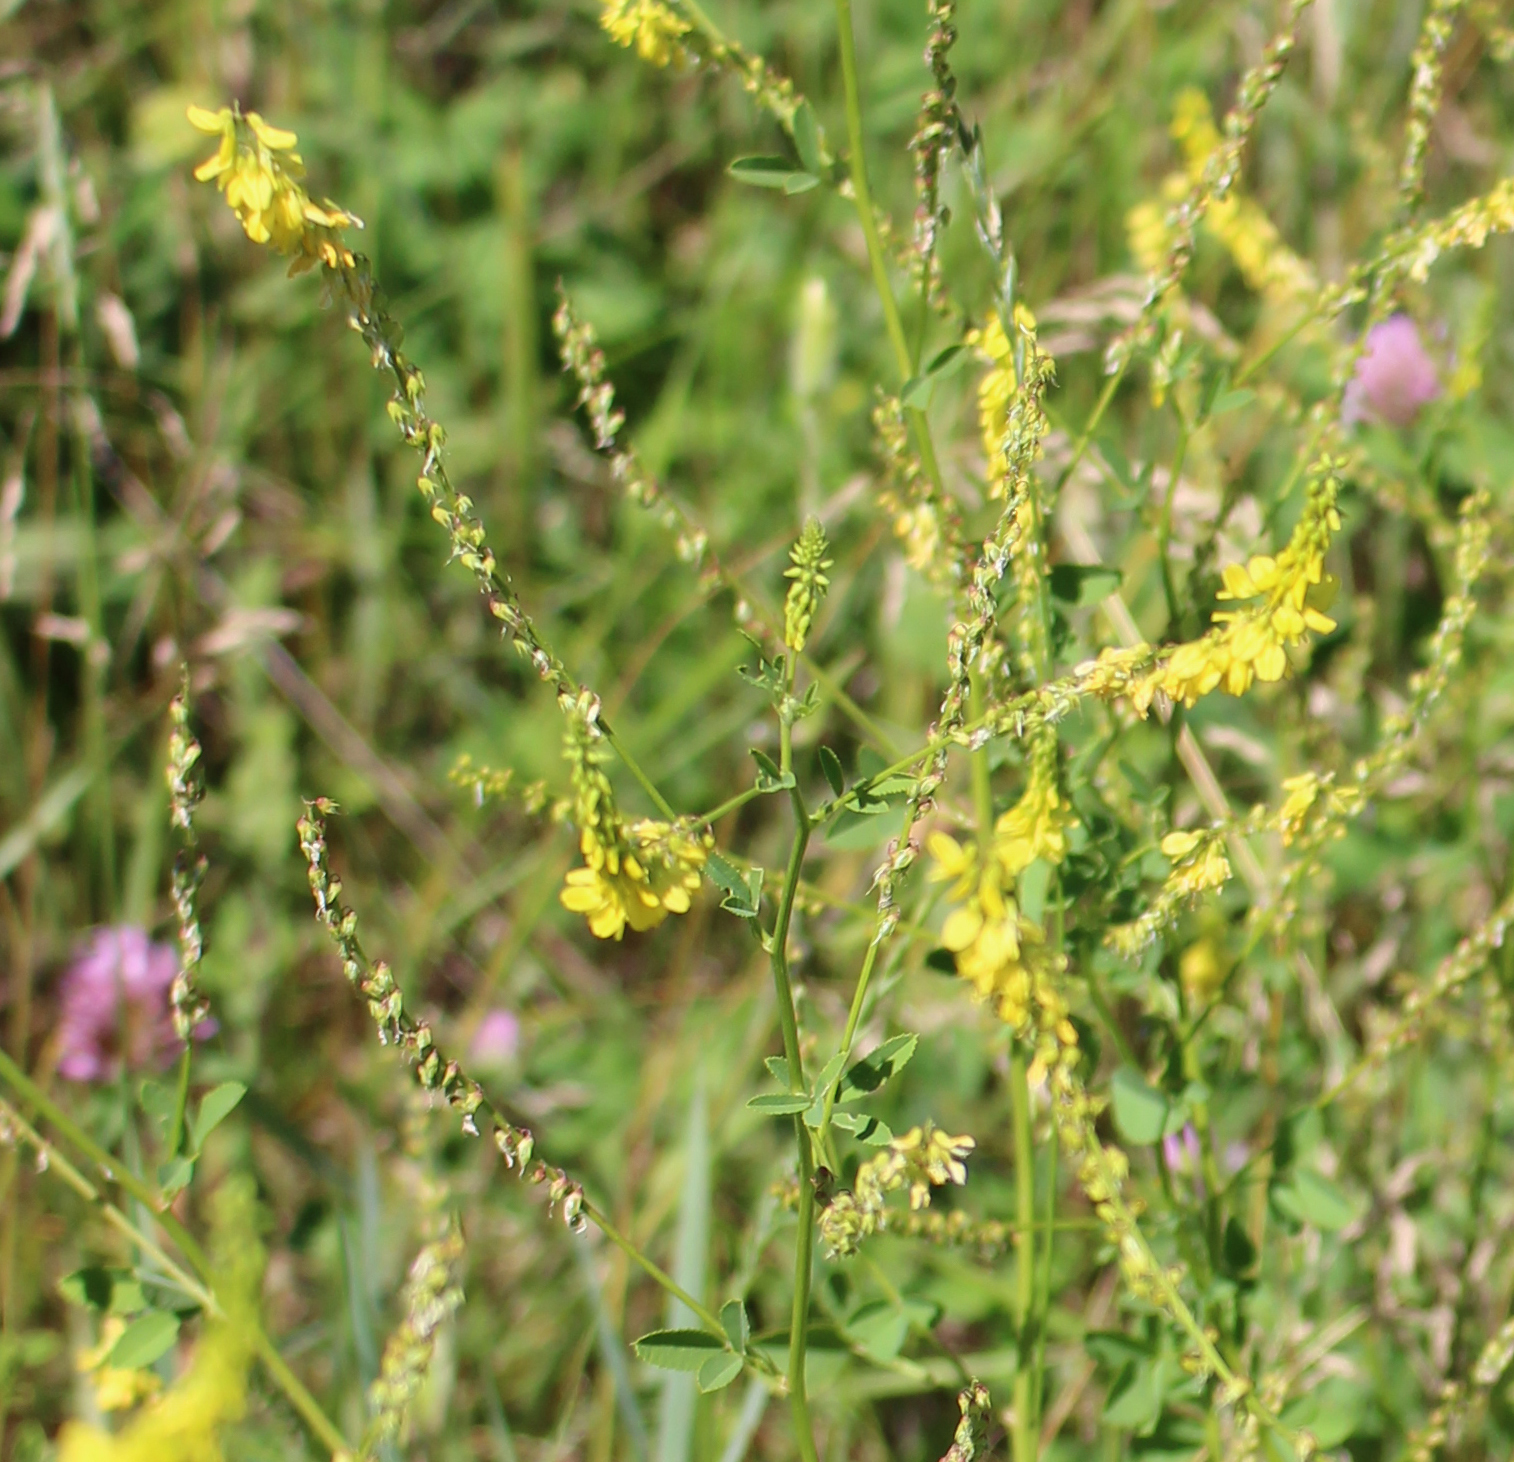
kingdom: Plantae
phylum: Tracheophyta
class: Magnoliopsida
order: Fabales
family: Fabaceae
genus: Melilotus
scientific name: Melilotus officinalis
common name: Sweetclover
